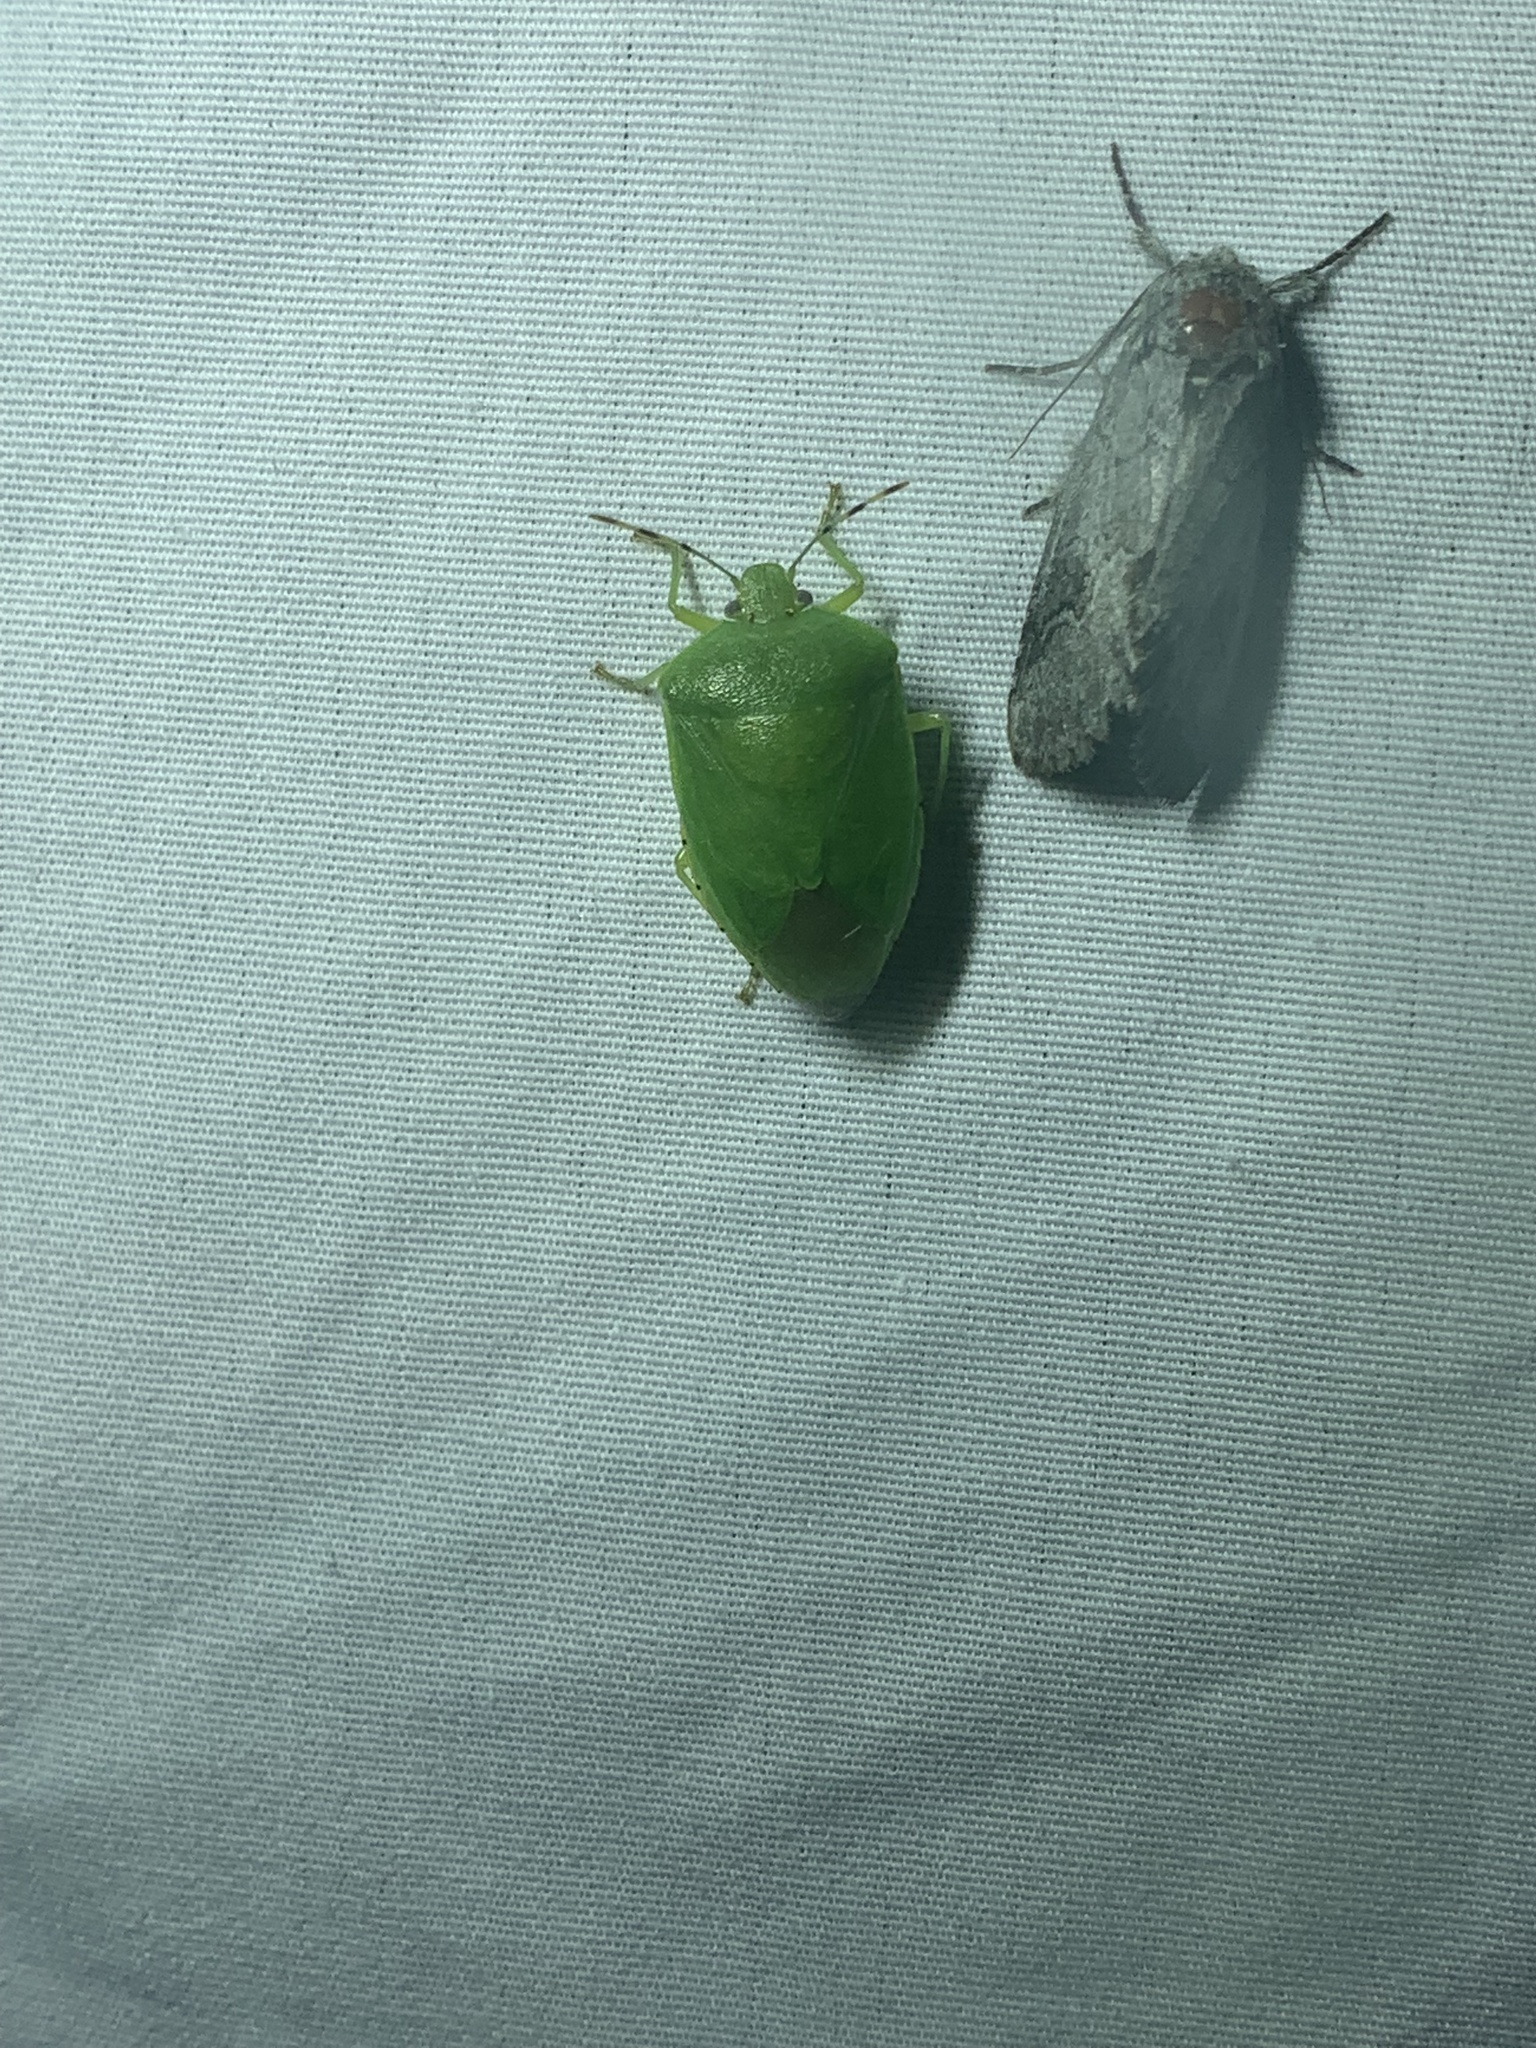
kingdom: Animalia
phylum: Arthropoda
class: Insecta
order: Hemiptera
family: Pentatomidae
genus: Chinavia
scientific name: Chinavia hilaris
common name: Green stink bug
